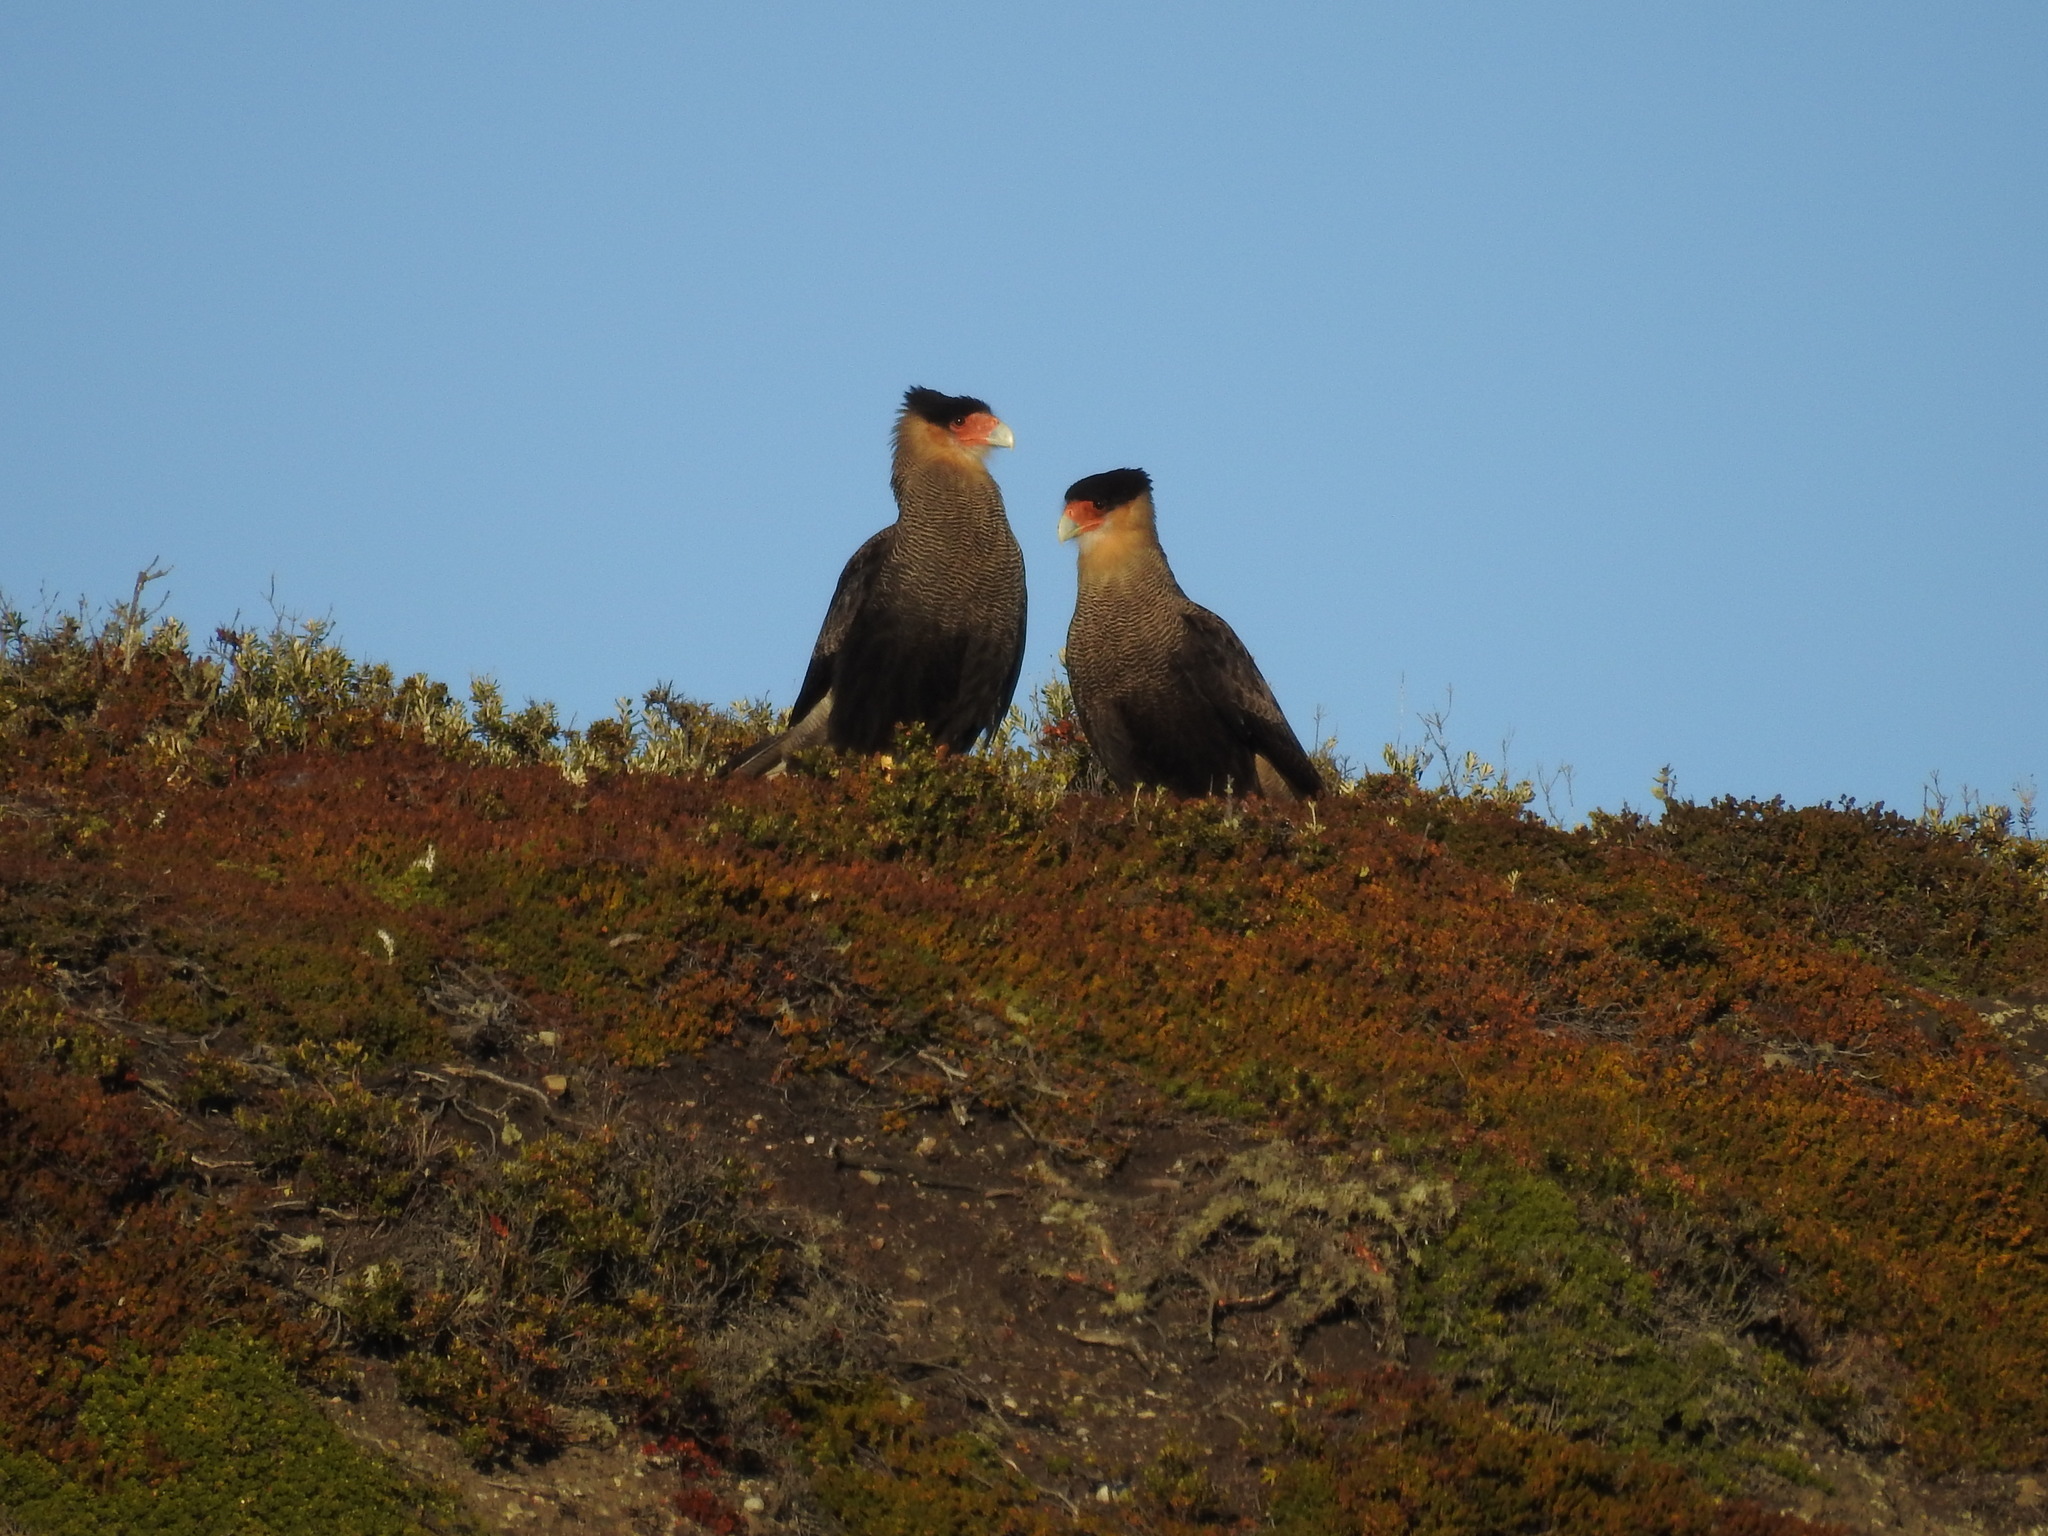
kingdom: Animalia
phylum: Chordata
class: Aves
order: Falconiformes
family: Falconidae
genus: Caracara
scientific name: Caracara plancus
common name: Southern caracara
